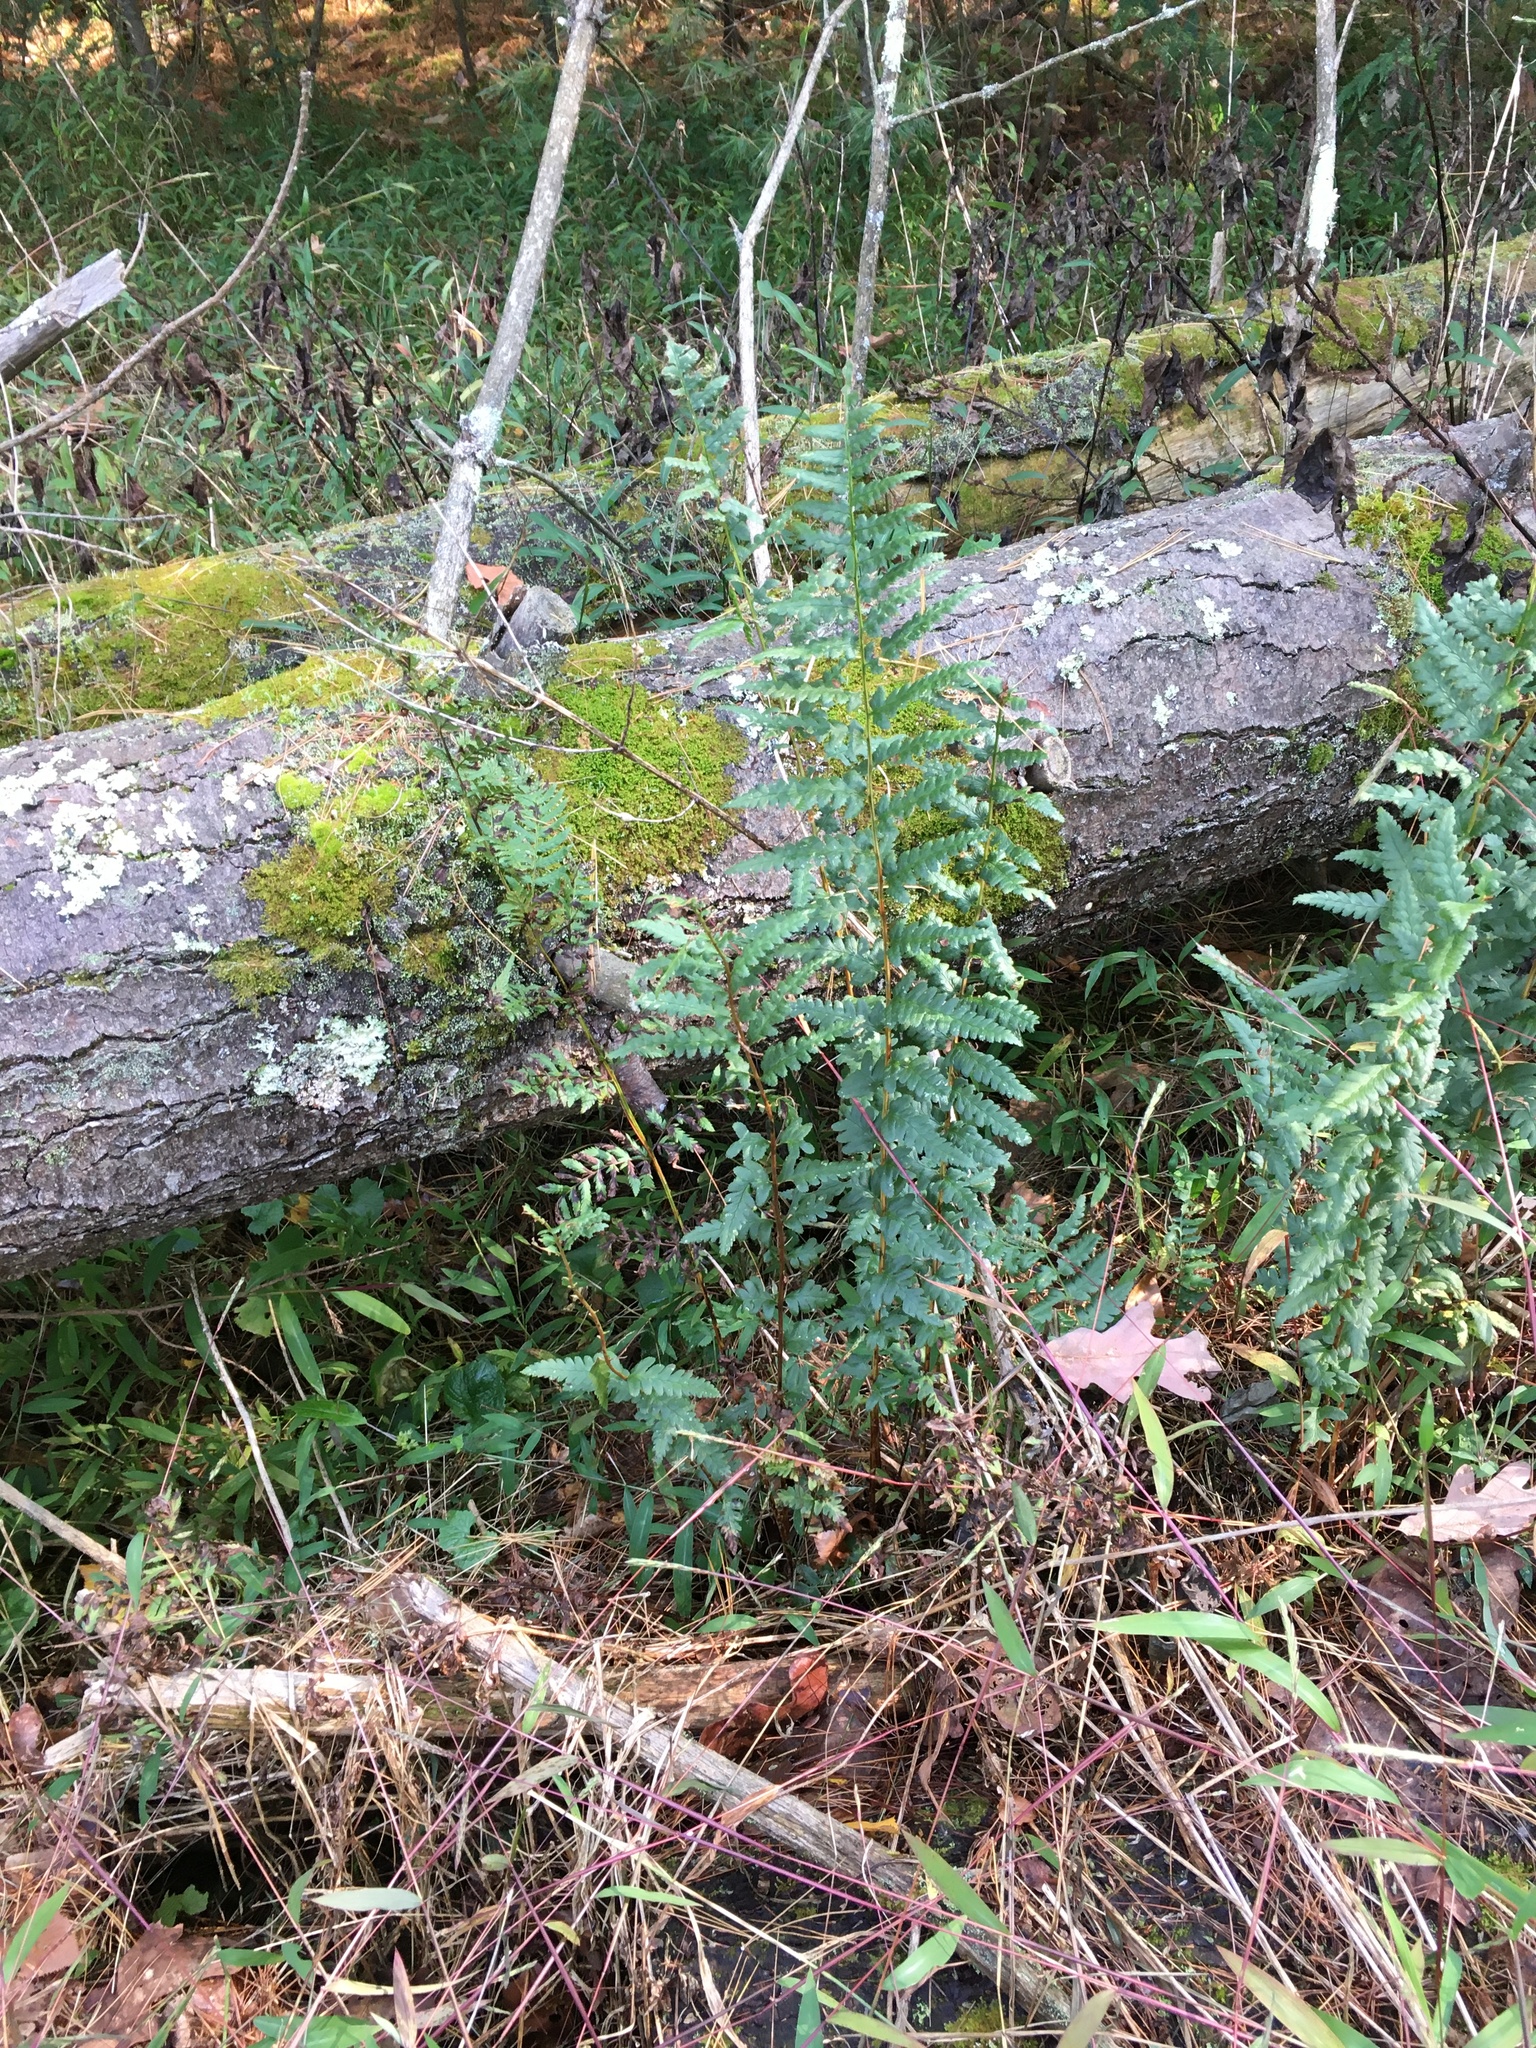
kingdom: Plantae
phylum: Tracheophyta
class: Polypodiopsida
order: Polypodiales
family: Dryopteridaceae
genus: Dryopteris
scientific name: Dryopteris cristata
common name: Crested wood fern
